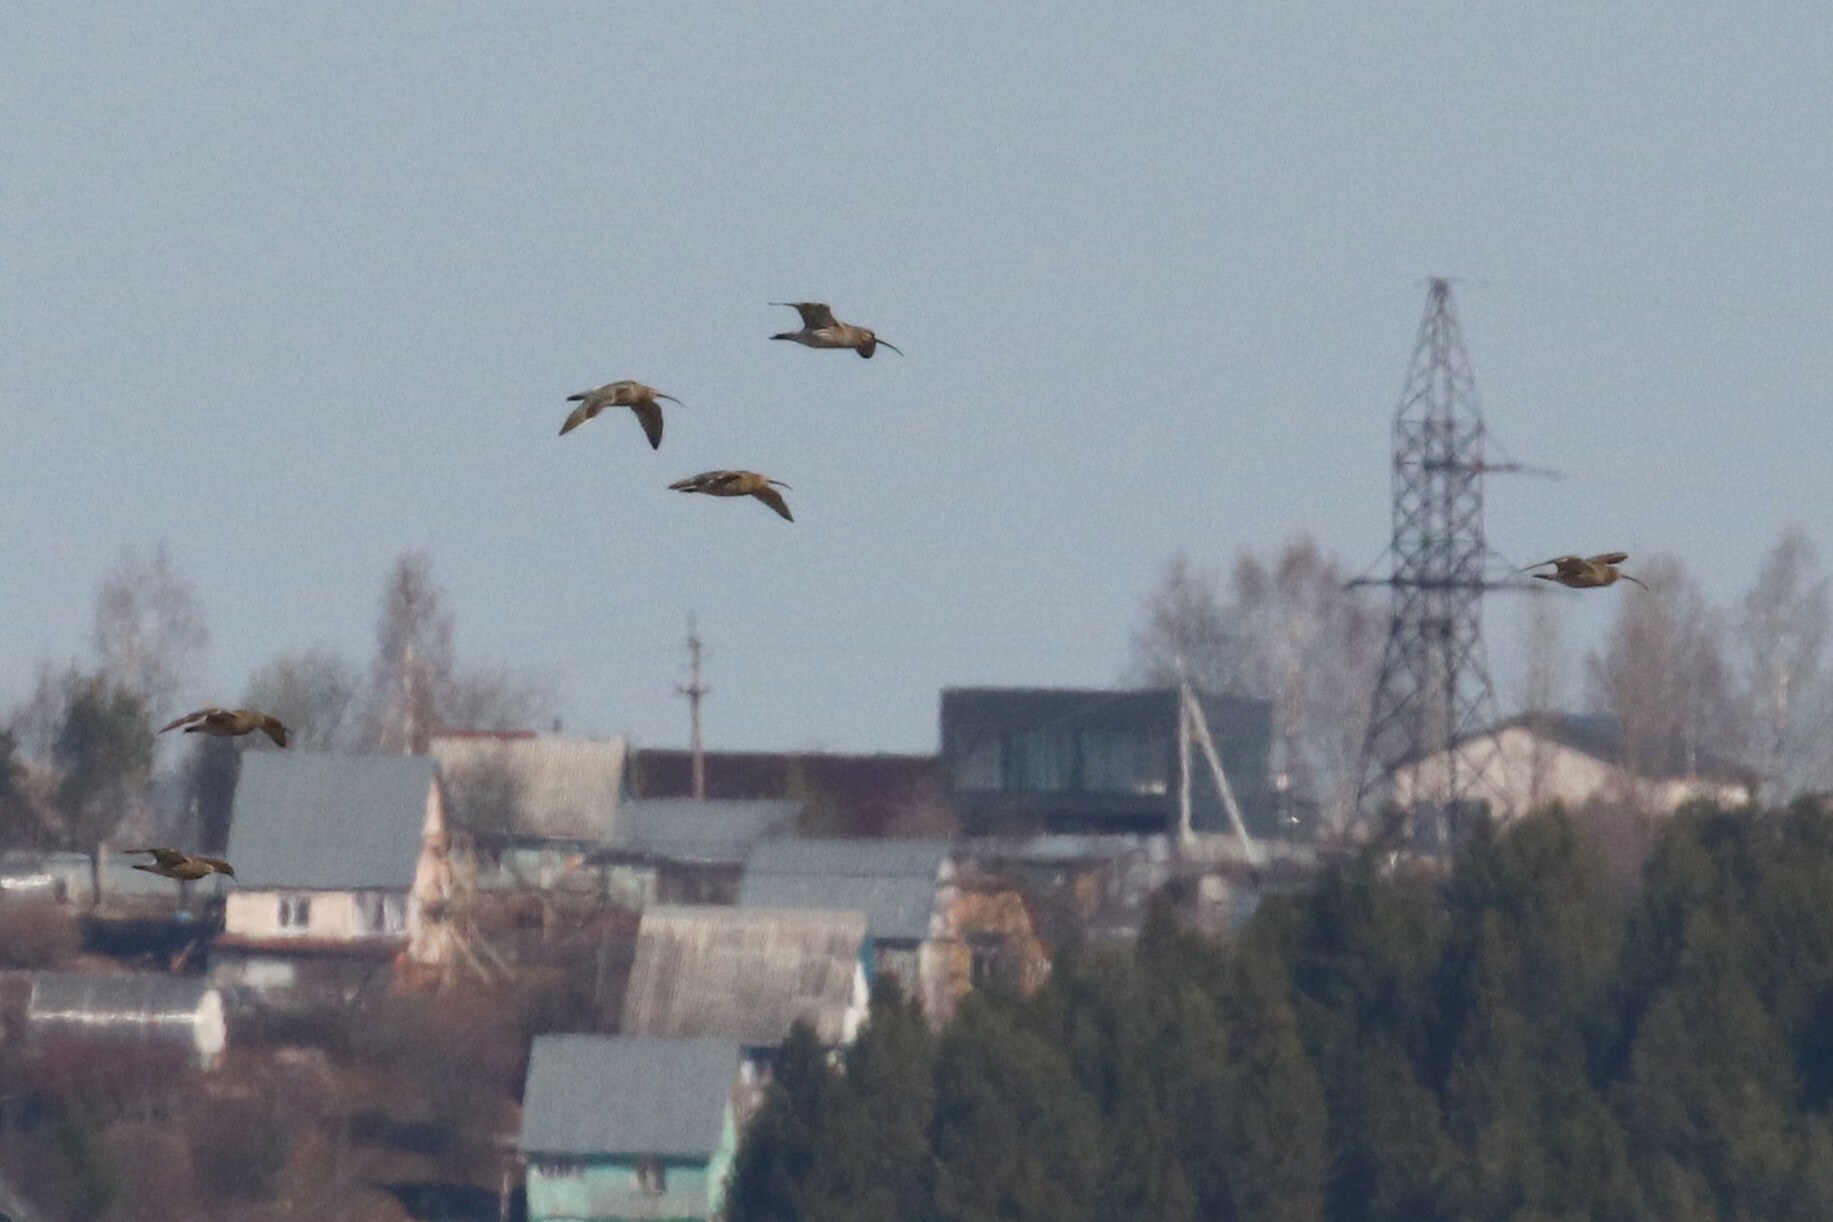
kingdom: Animalia
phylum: Chordata
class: Aves
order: Charadriiformes
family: Scolopacidae
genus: Numenius
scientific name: Numenius arquata
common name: Eurasian curlew
